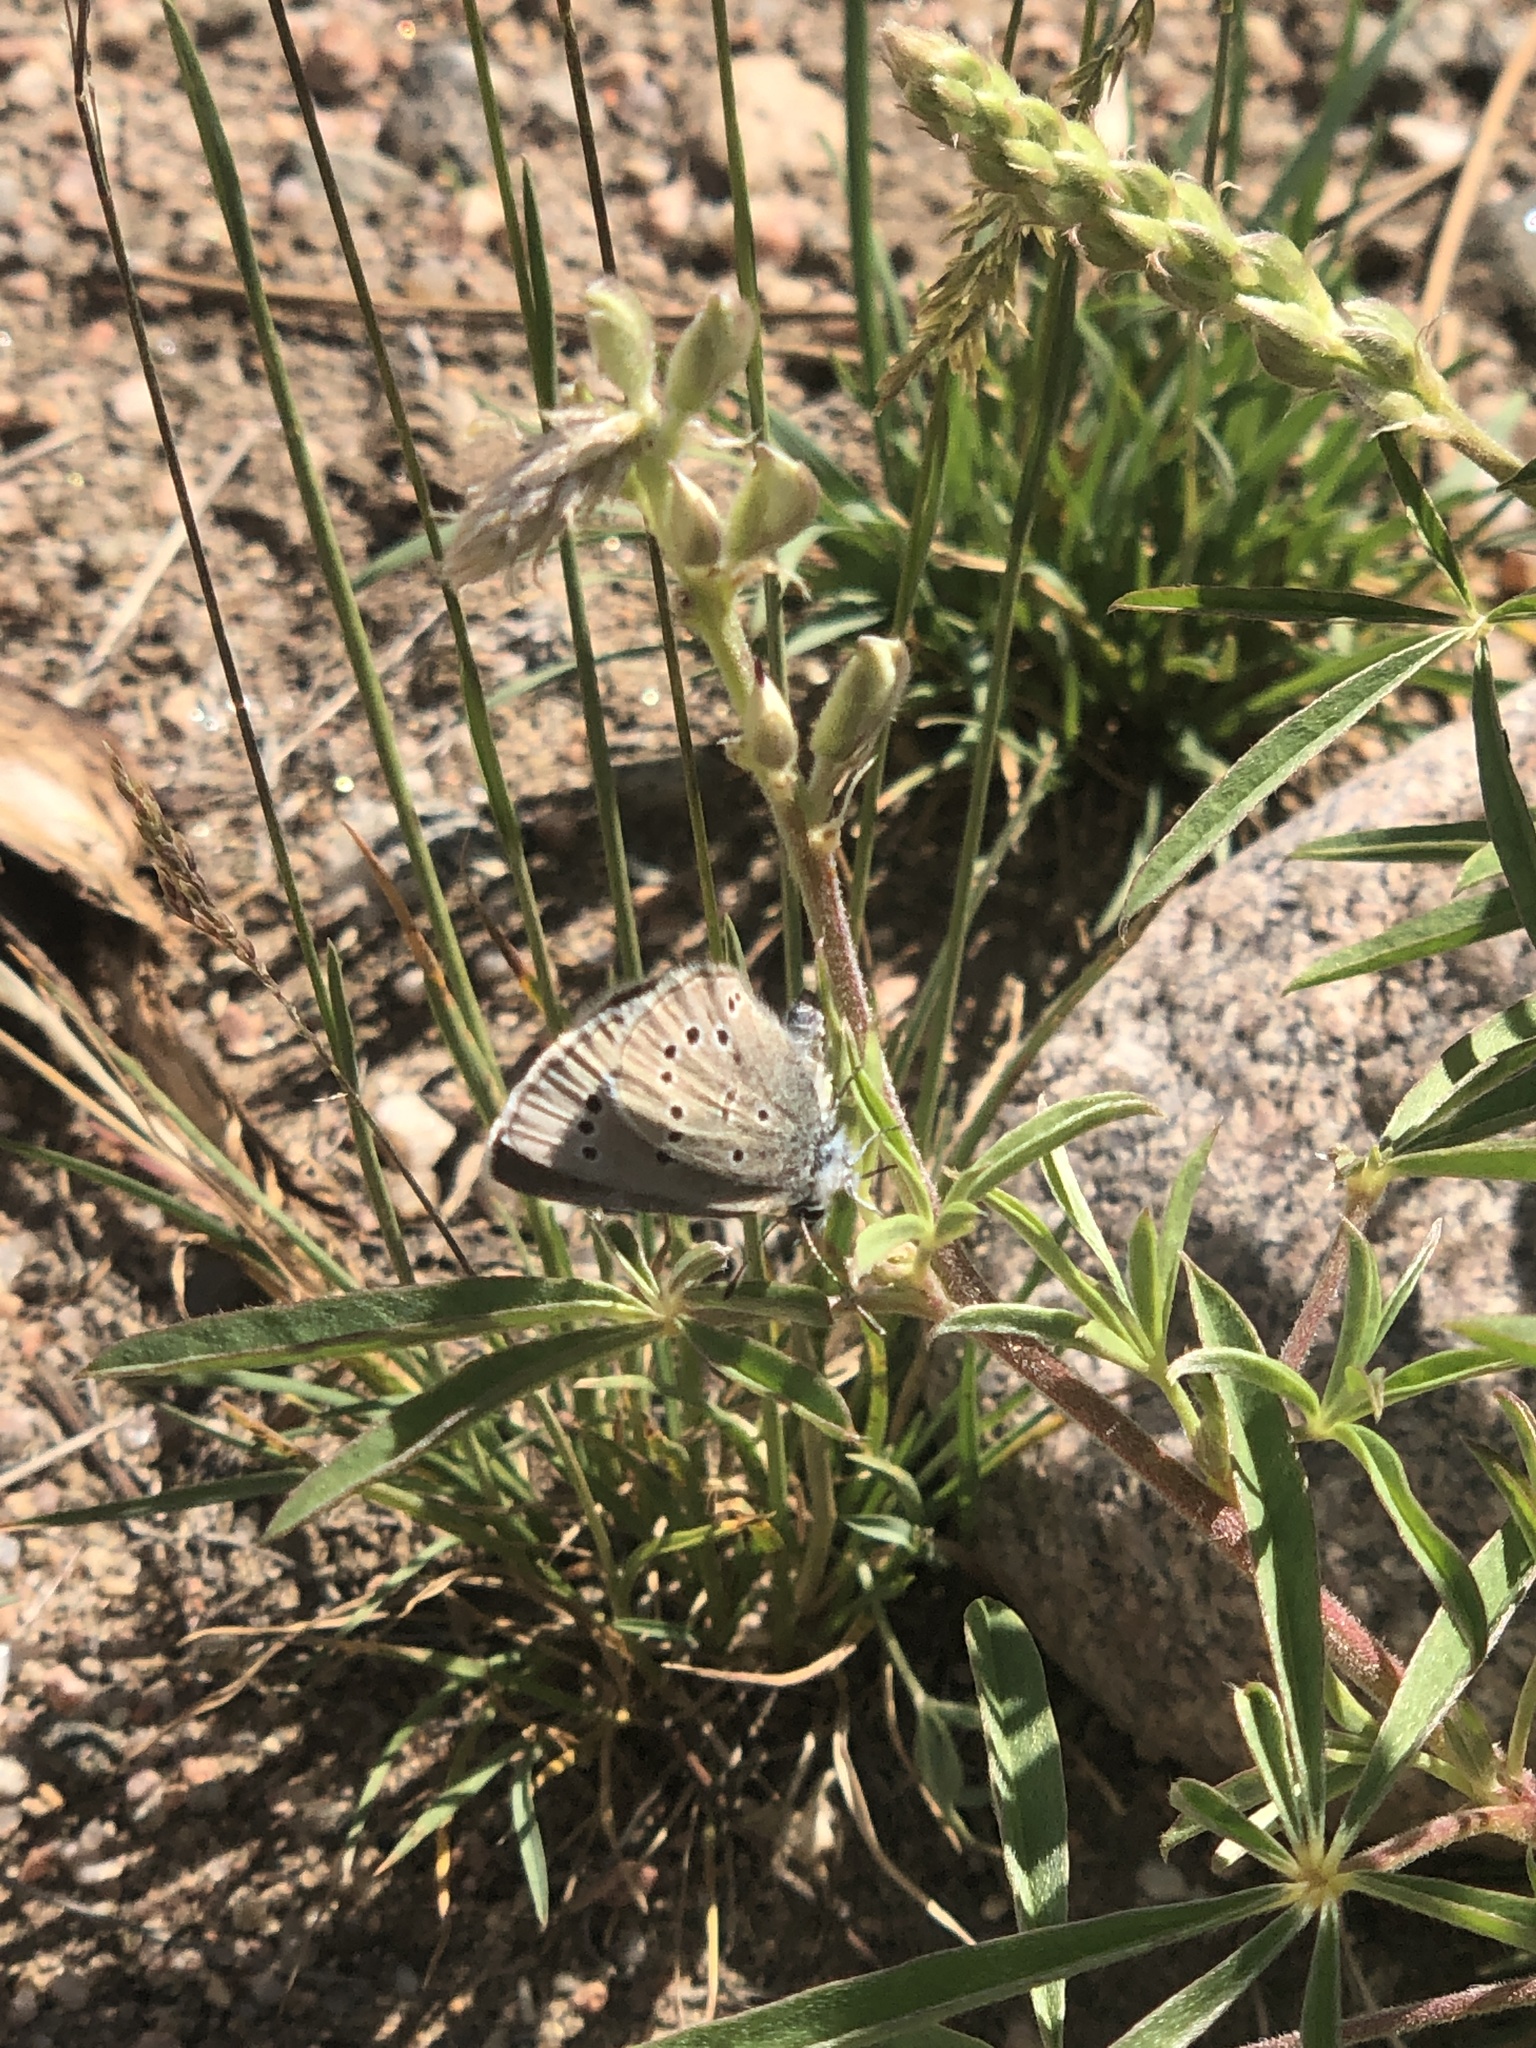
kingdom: Animalia
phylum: Arthropoda
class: Insecta
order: Lepidoptera
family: Lycaenidae
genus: Glaucopsyche
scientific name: Glaucopsyche lygdamus
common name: Silvery blue
